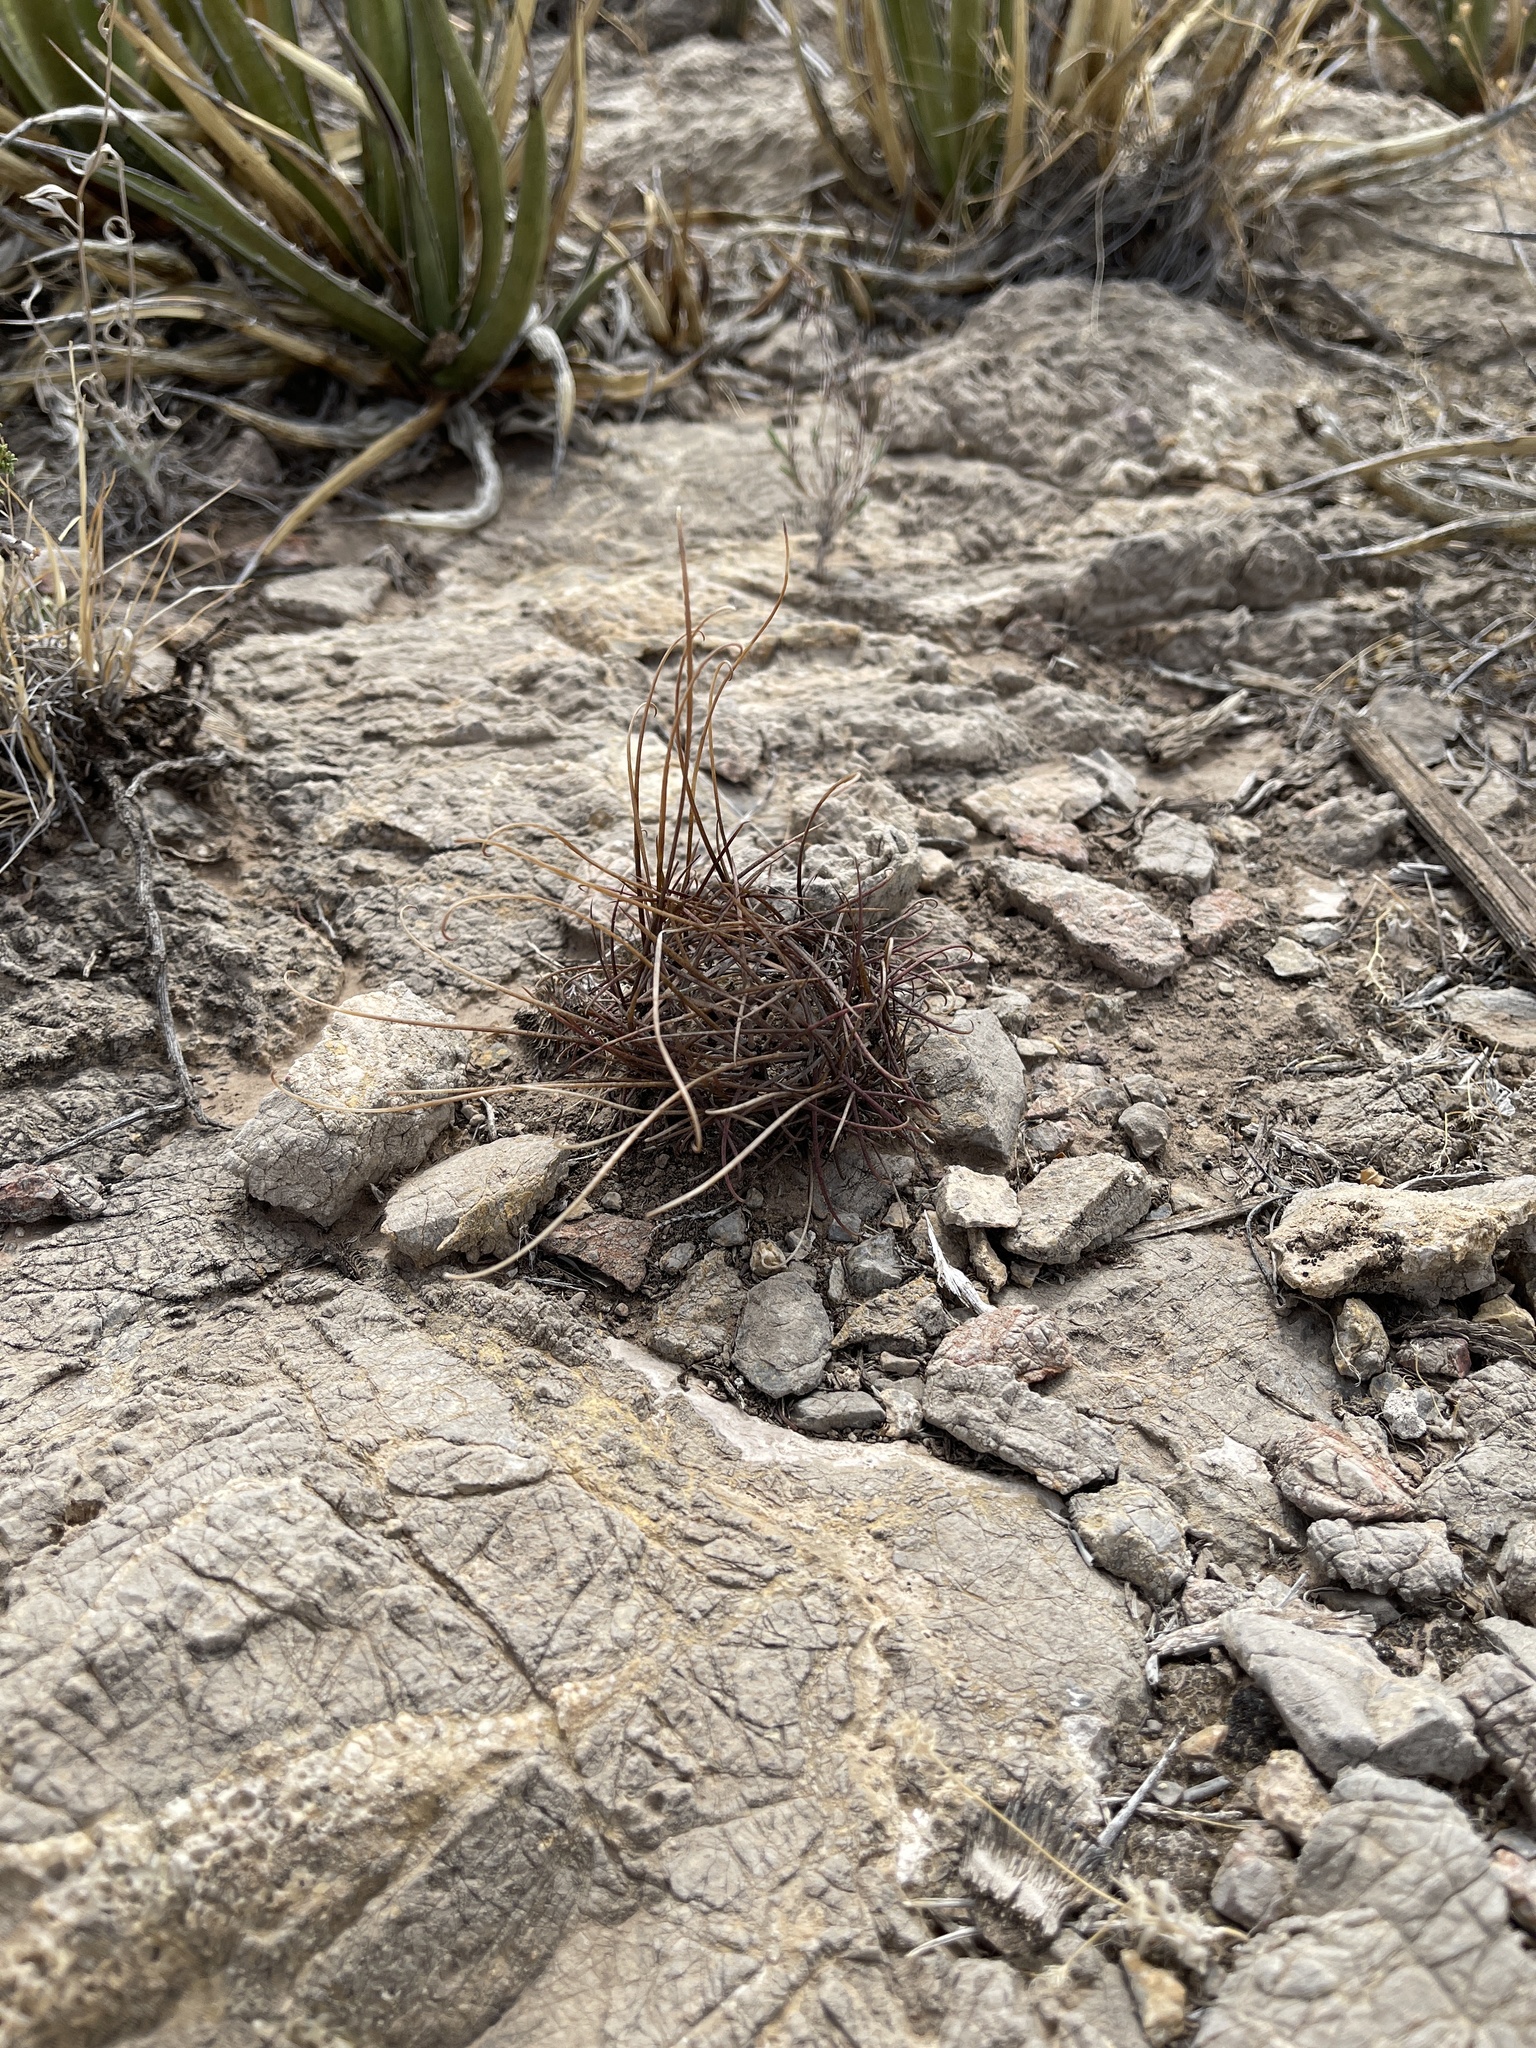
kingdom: Plantae
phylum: Tracheophyta
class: Magnoliopsida
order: Caryophyllales
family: Cactaceae
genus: Ferocactus
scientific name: Ferocactus uncinatus
